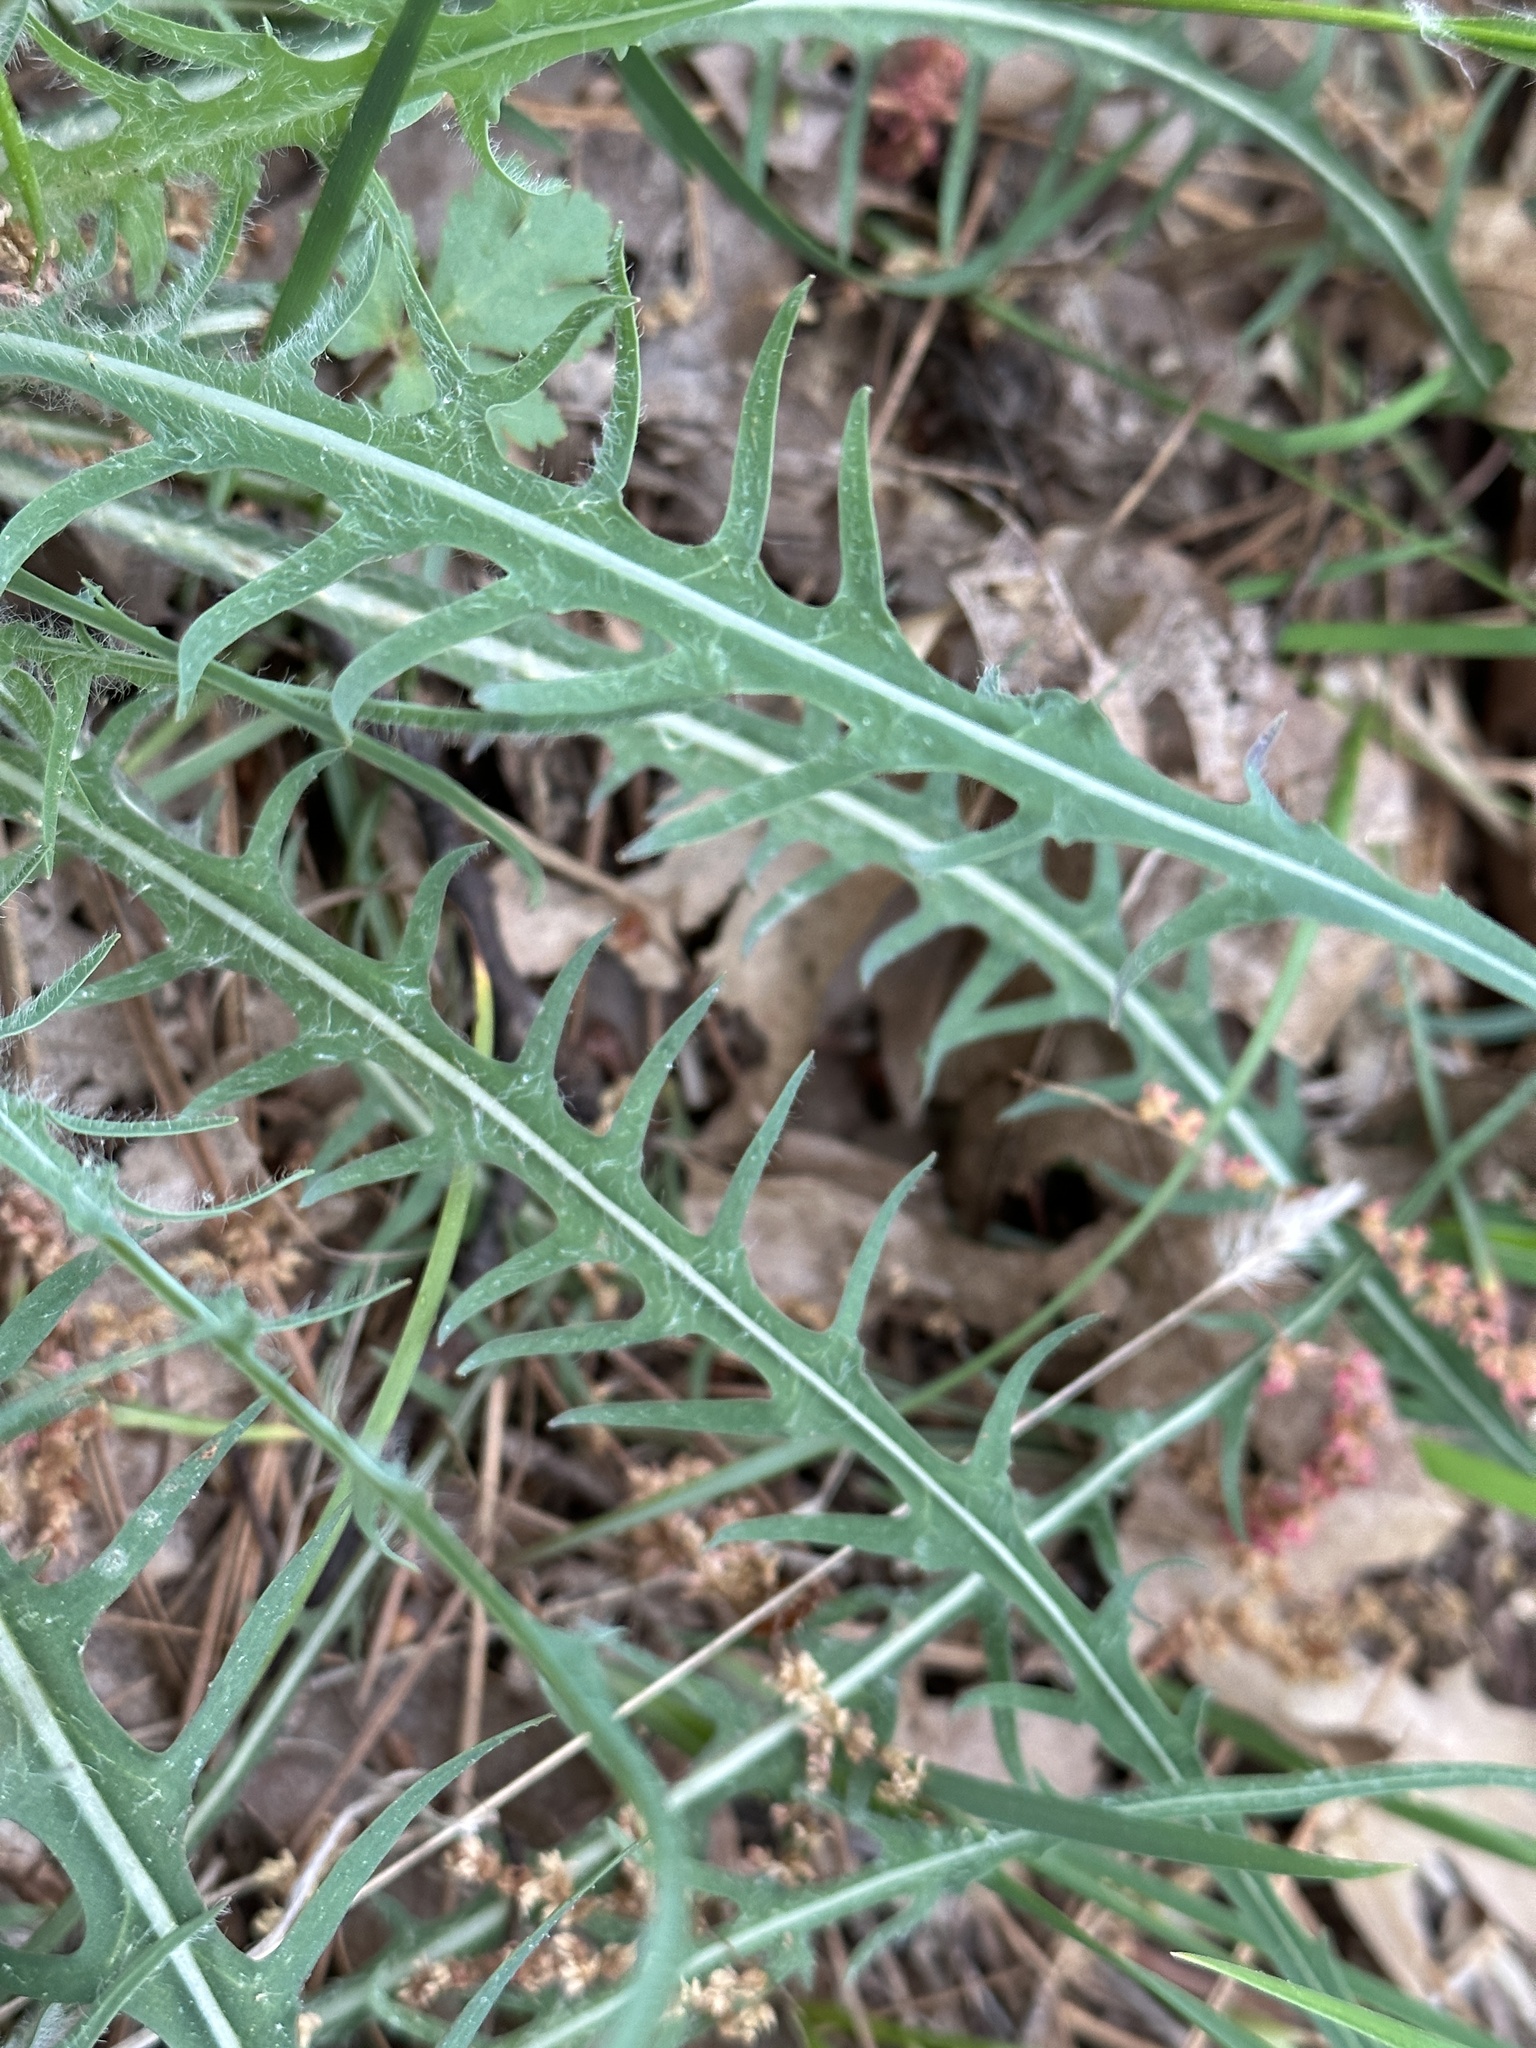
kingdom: Plantae
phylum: Tracheophyta
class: Magnoliopsida
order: Asterales
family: Asteraceae
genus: Agoseris
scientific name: Agoseris retrorsa
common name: Spearleaf agoseris
